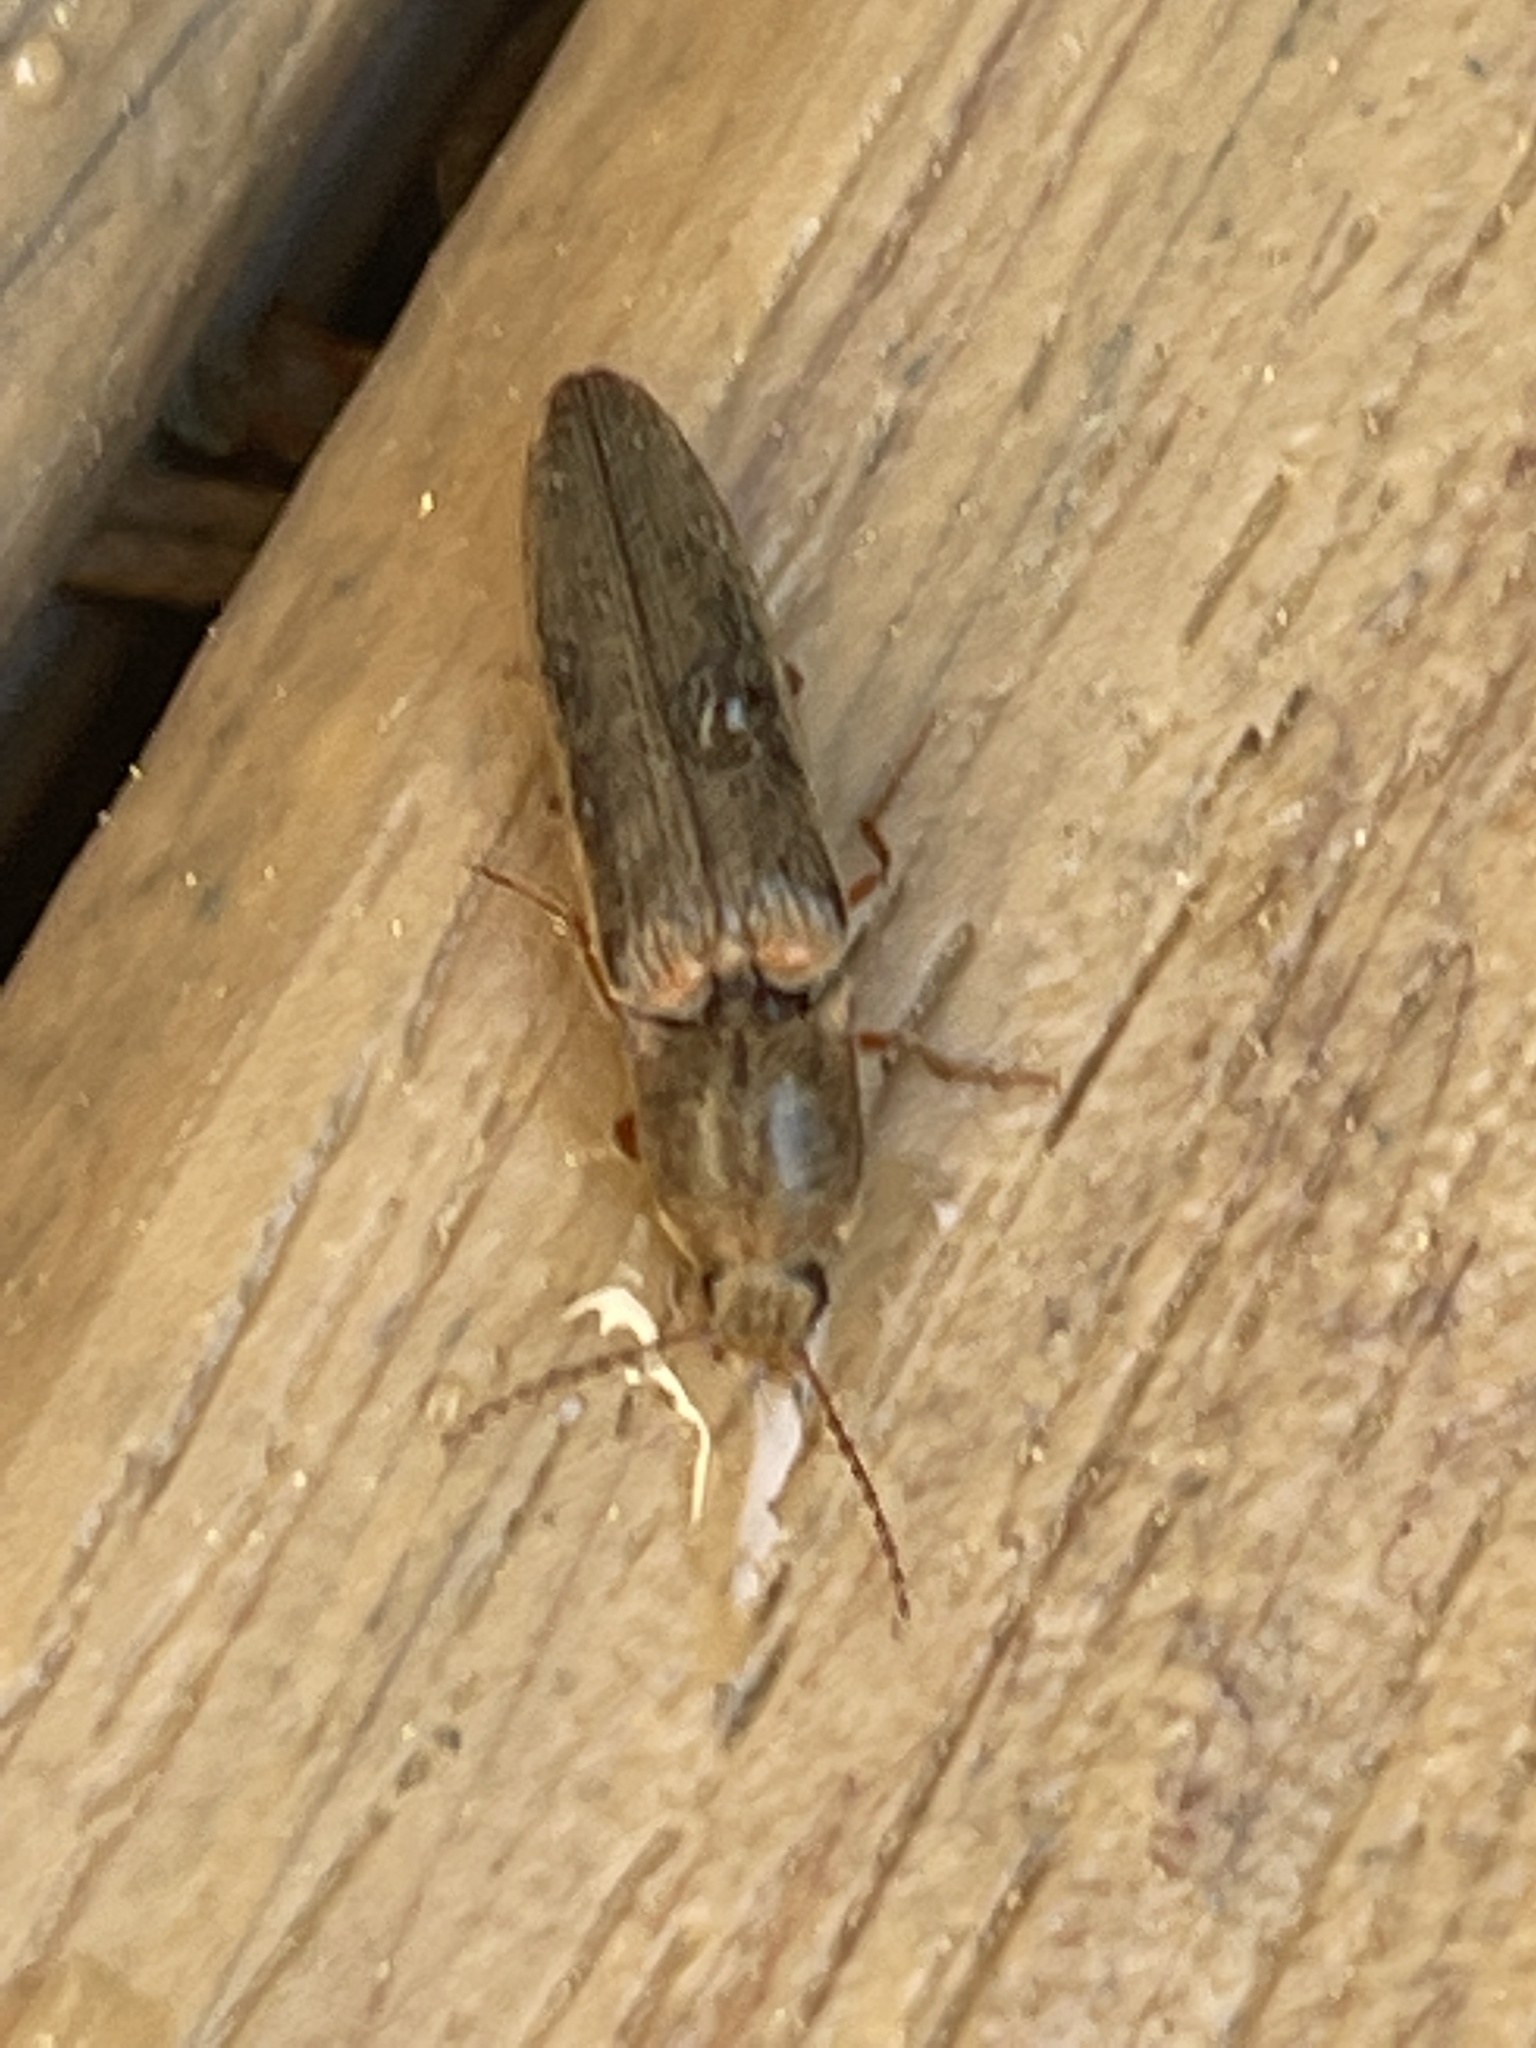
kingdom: Animalia
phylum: Arthropoda
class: Insecta
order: Coleoptera
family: Elateridae
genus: Gambrinus
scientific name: Gambrinus griseus
